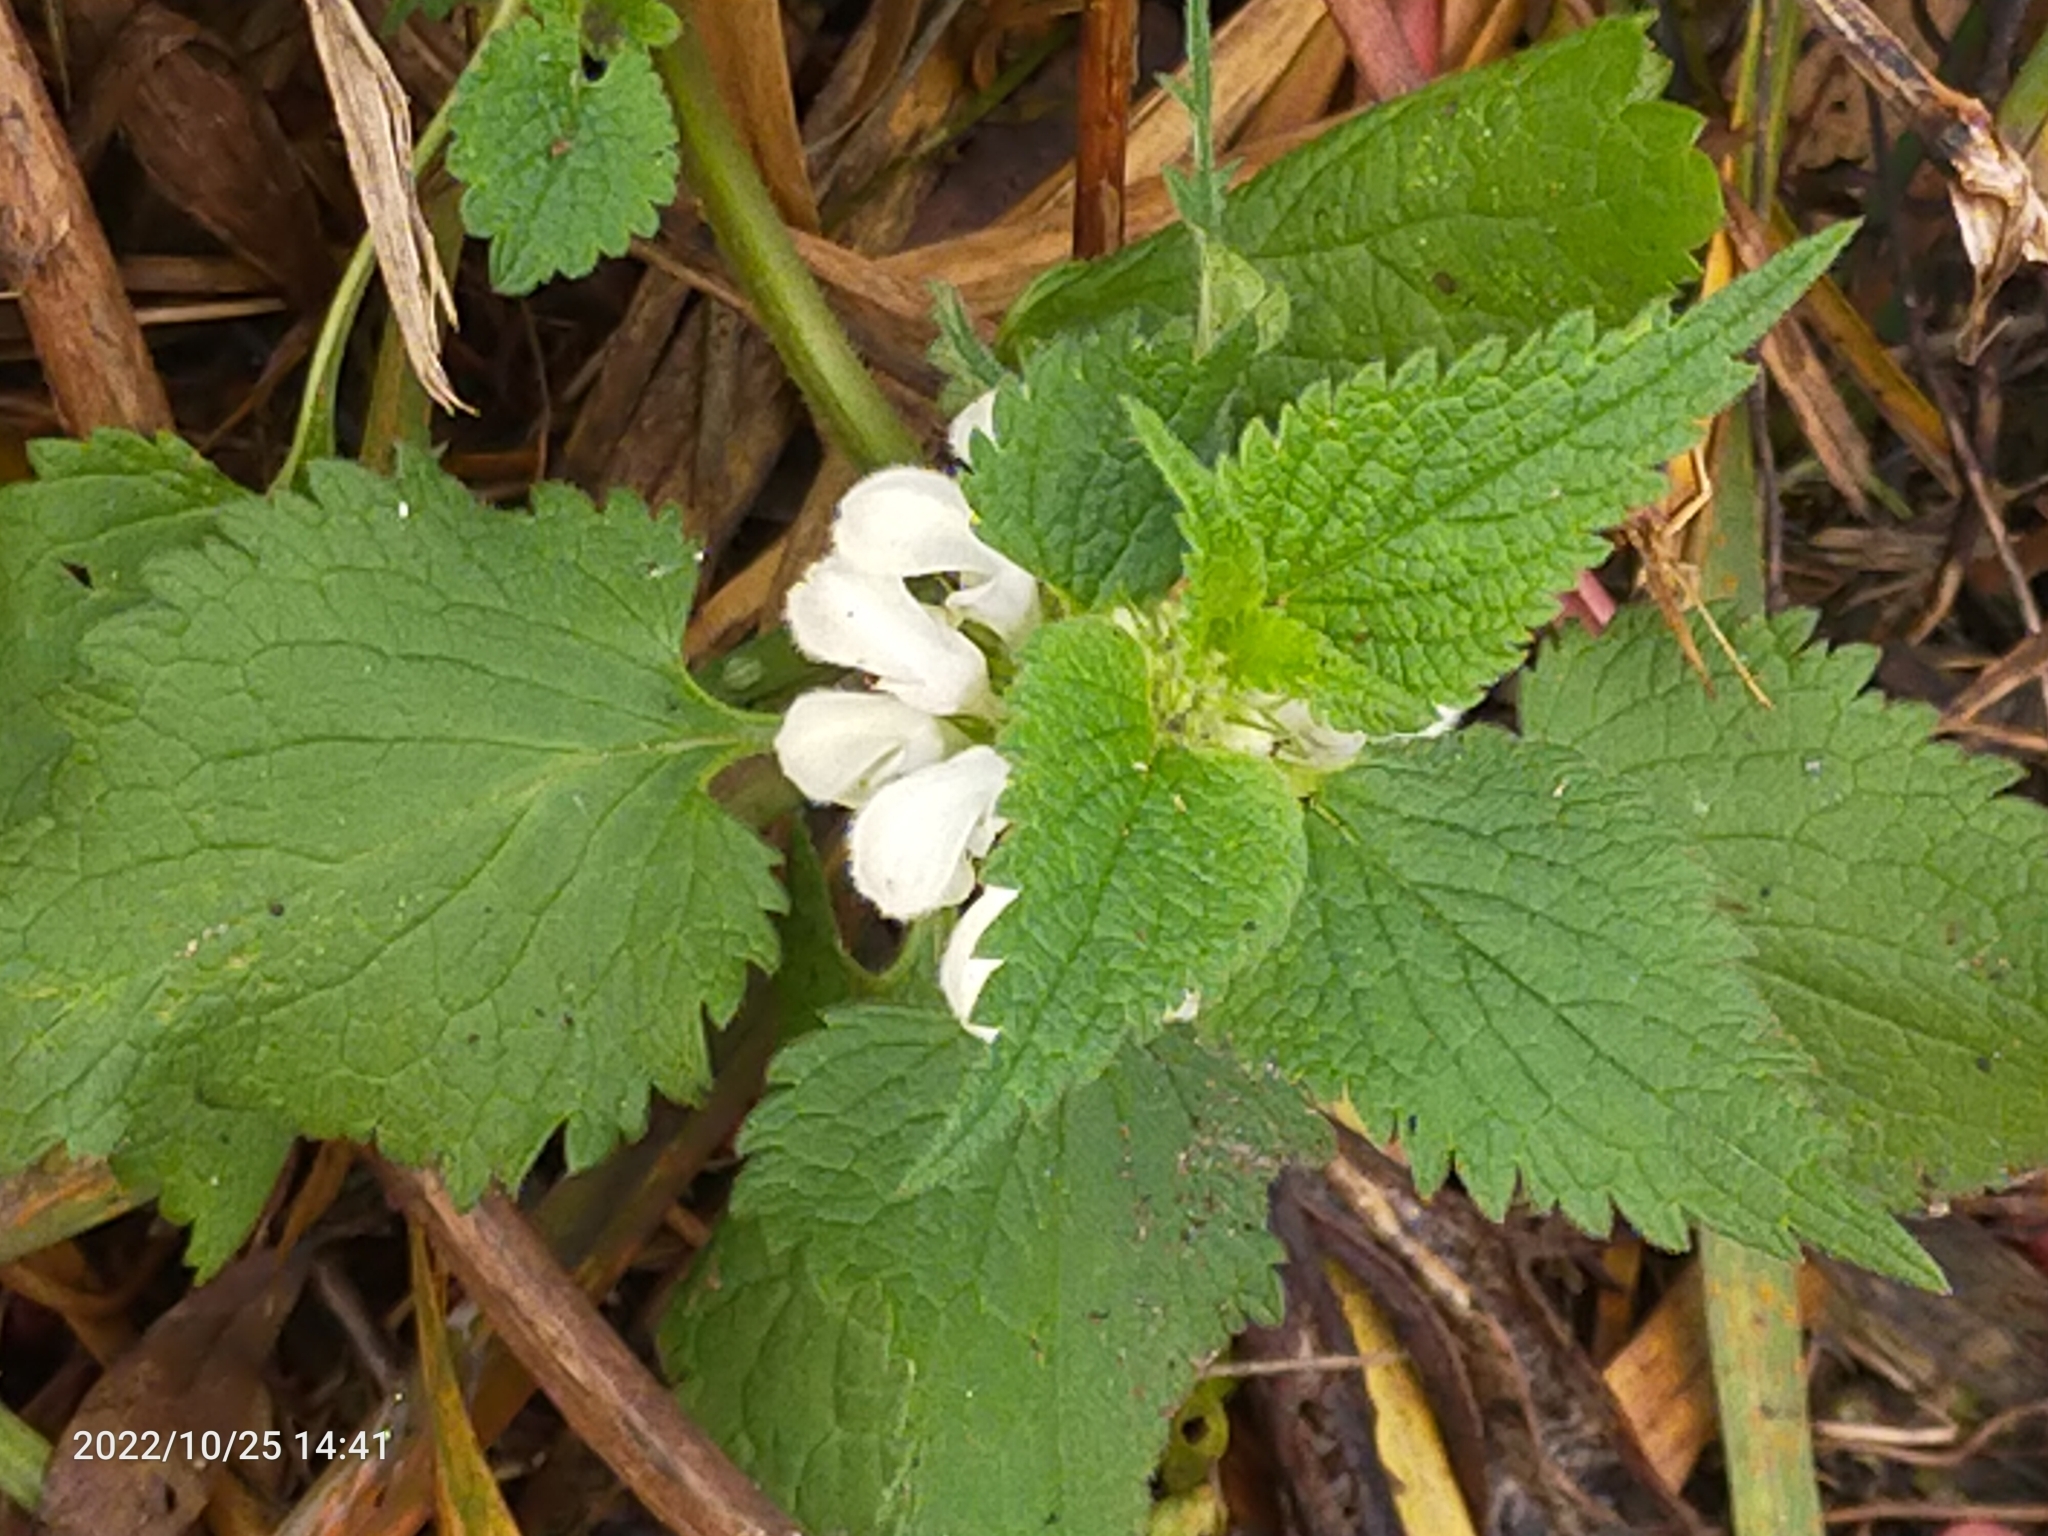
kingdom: Plantae
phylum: Tracheophyta
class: Magnoliopsida
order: Lamiales
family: Lamiaceae
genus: Lamium
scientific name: Lamium album
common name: White dead-nettle
